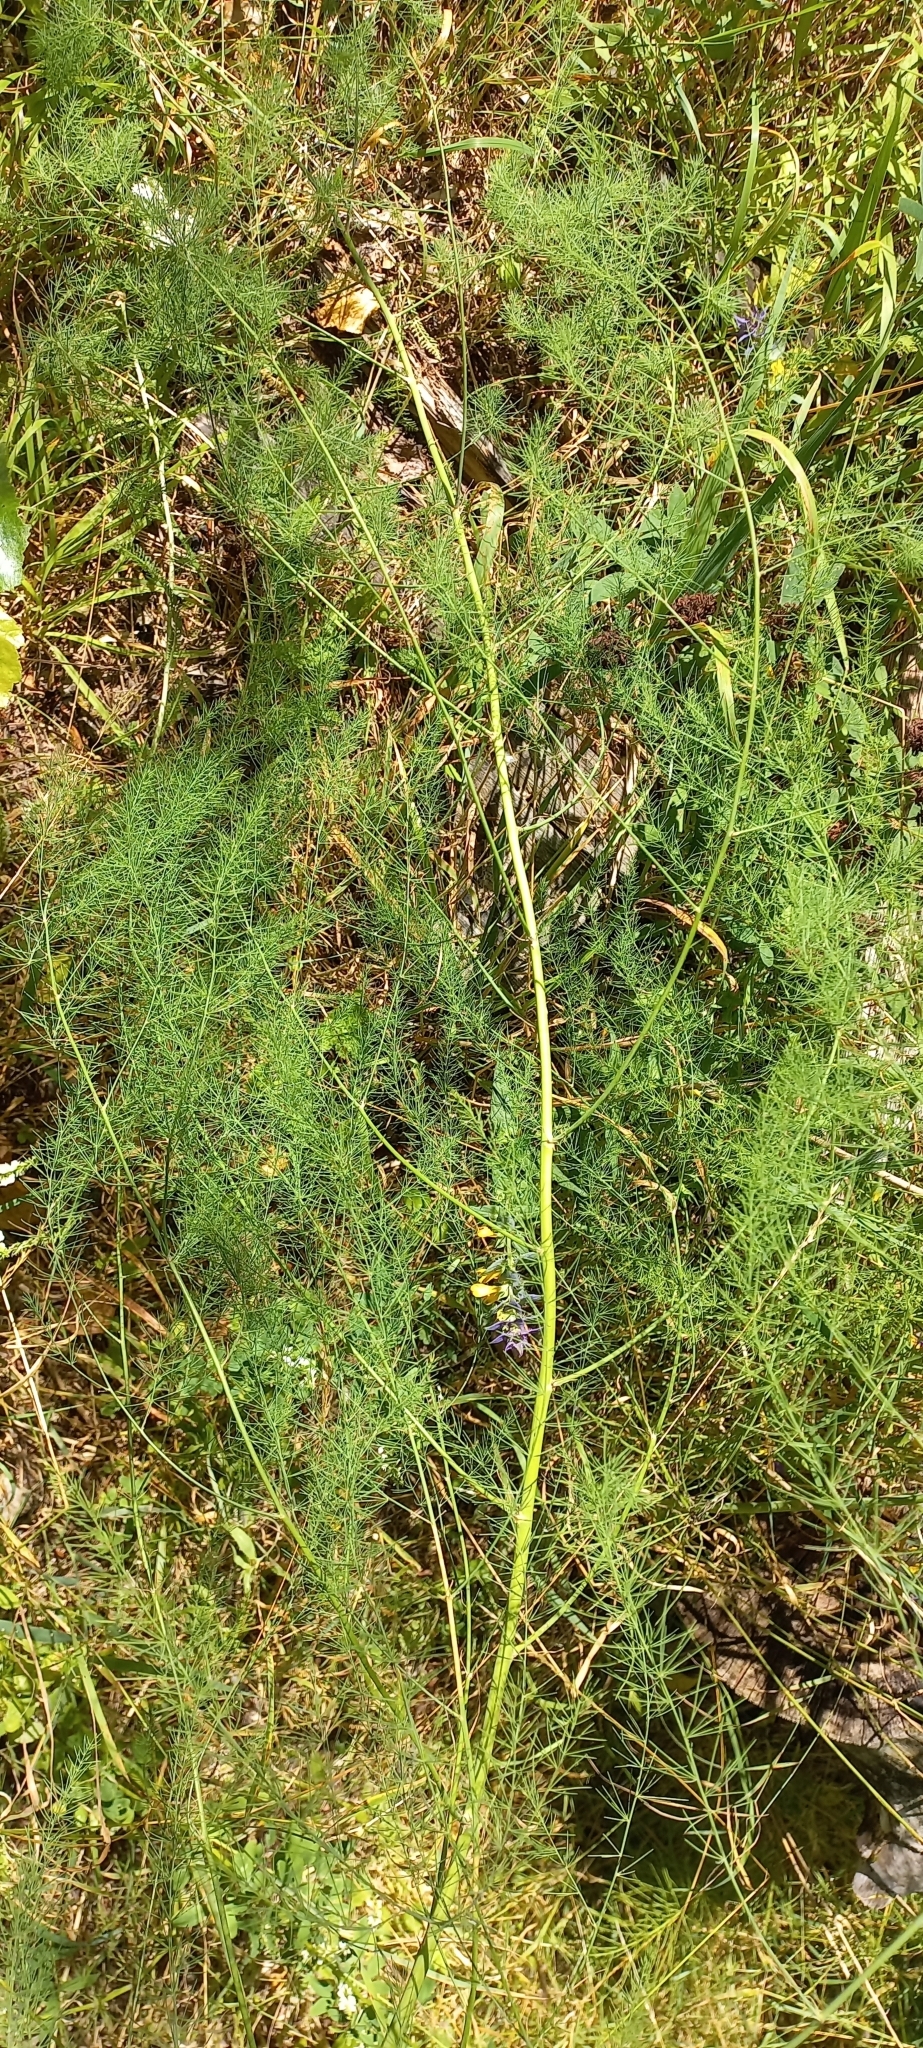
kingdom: Plantae
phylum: Tracheophyta
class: Liliopsida
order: Asparagales
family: Asparagaceae
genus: Asparagus
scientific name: Asparagus officinalis
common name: Garden asparagus
